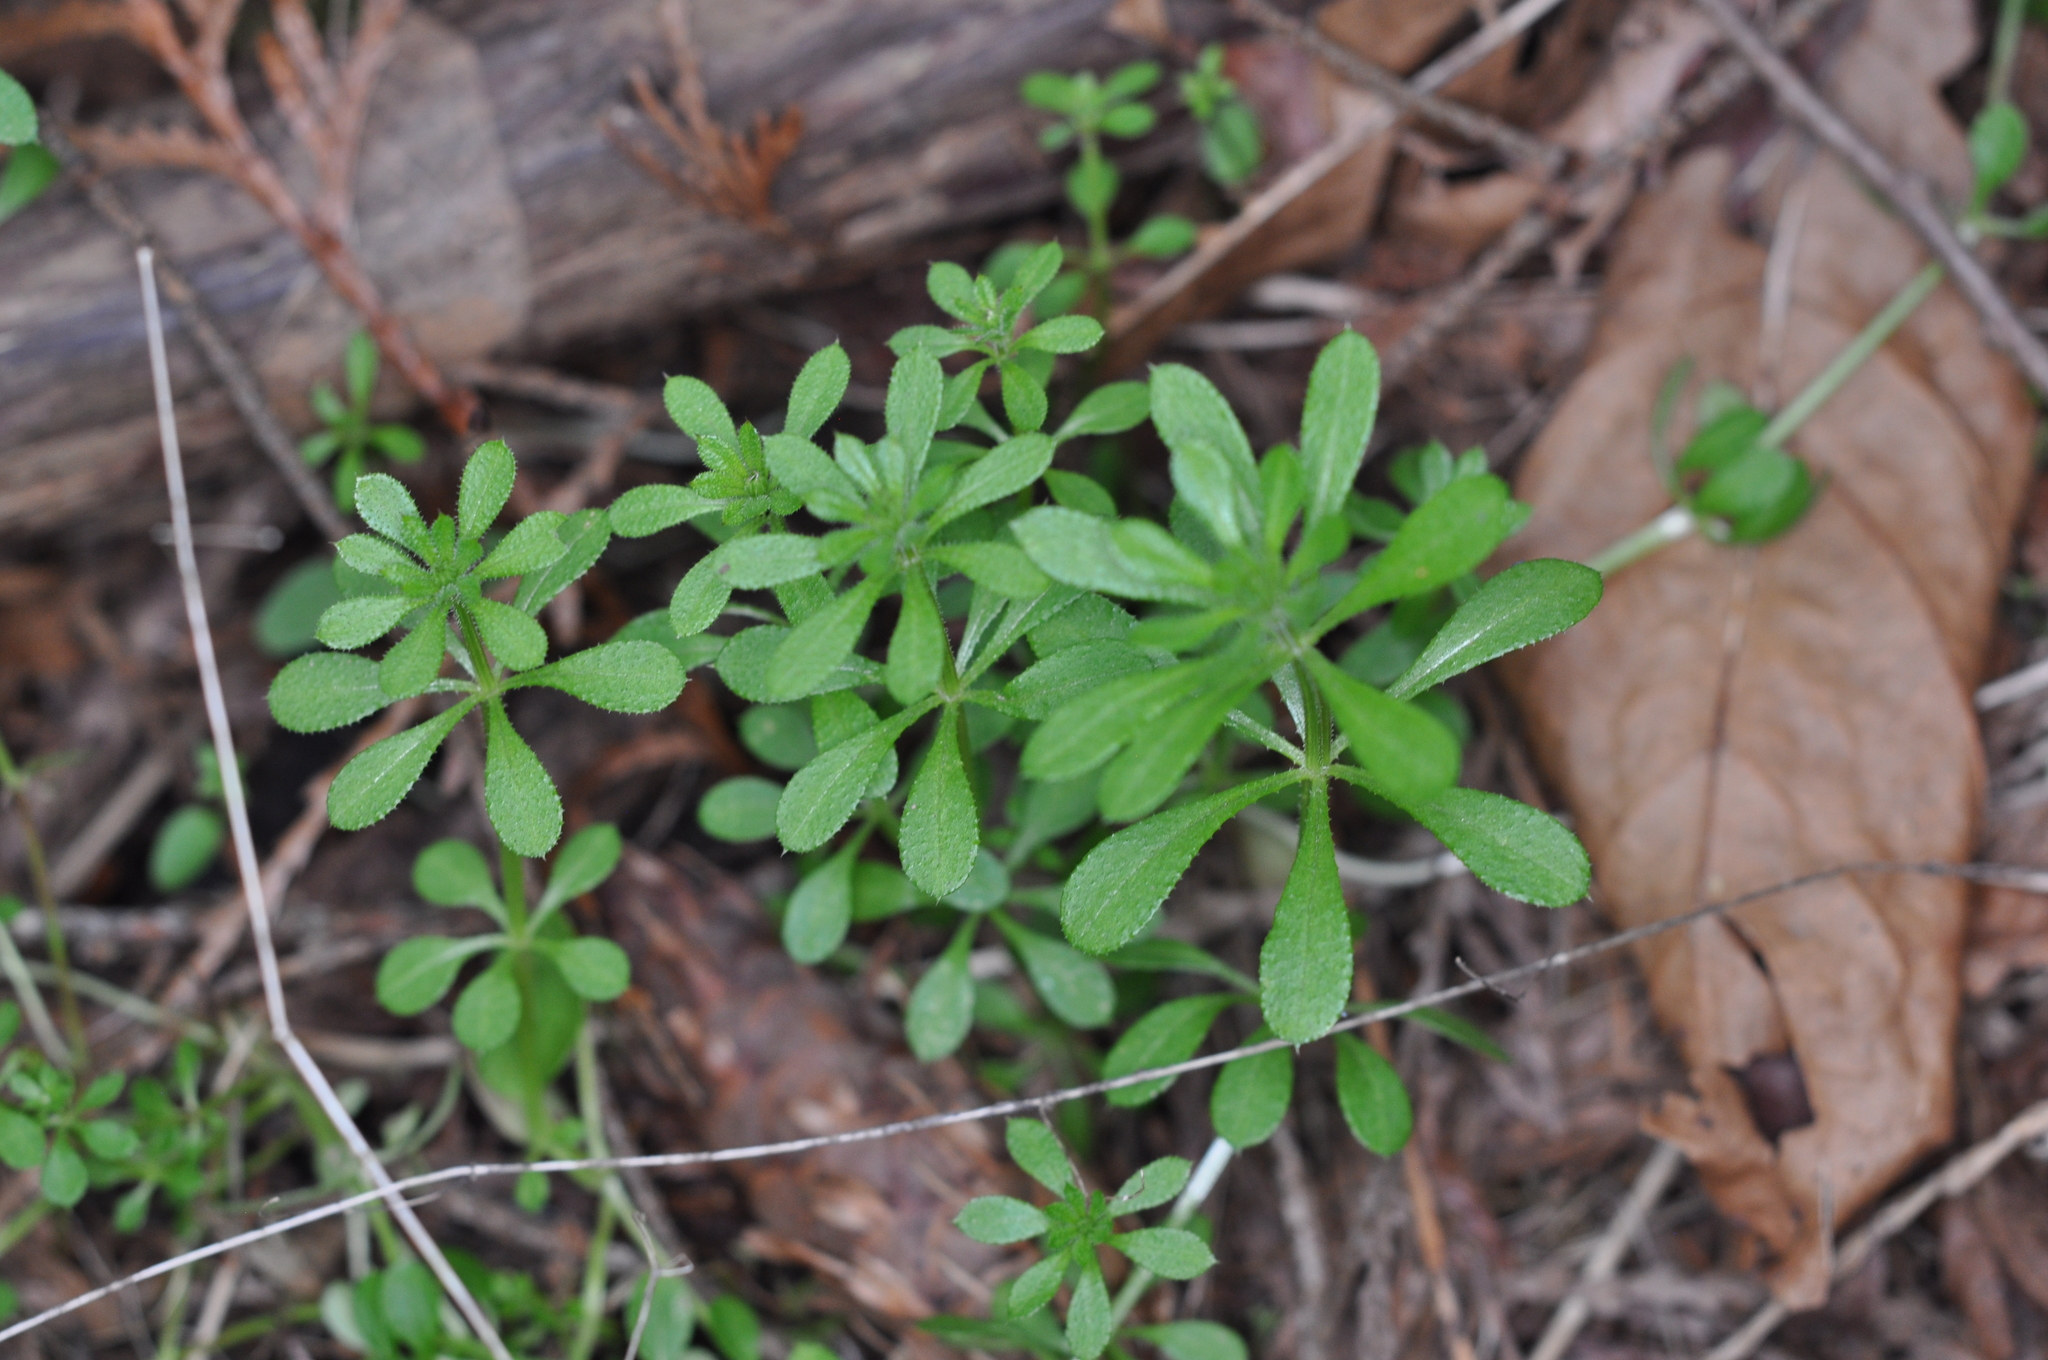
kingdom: Plantae
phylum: Tracheophyta
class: Magnoliopsida
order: Gentianales
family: Rubiaceae
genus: Galium
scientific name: Galium aparine
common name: Cleavers
